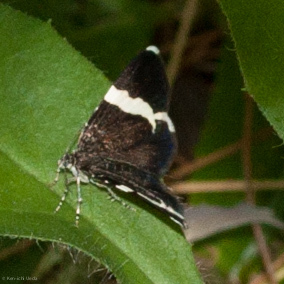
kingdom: Animalia
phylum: Arthropoda
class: Insecta
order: Lepidoptera
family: Geometridae
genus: Trichodezia
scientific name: Trichodezia albovittata
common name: White striped black
